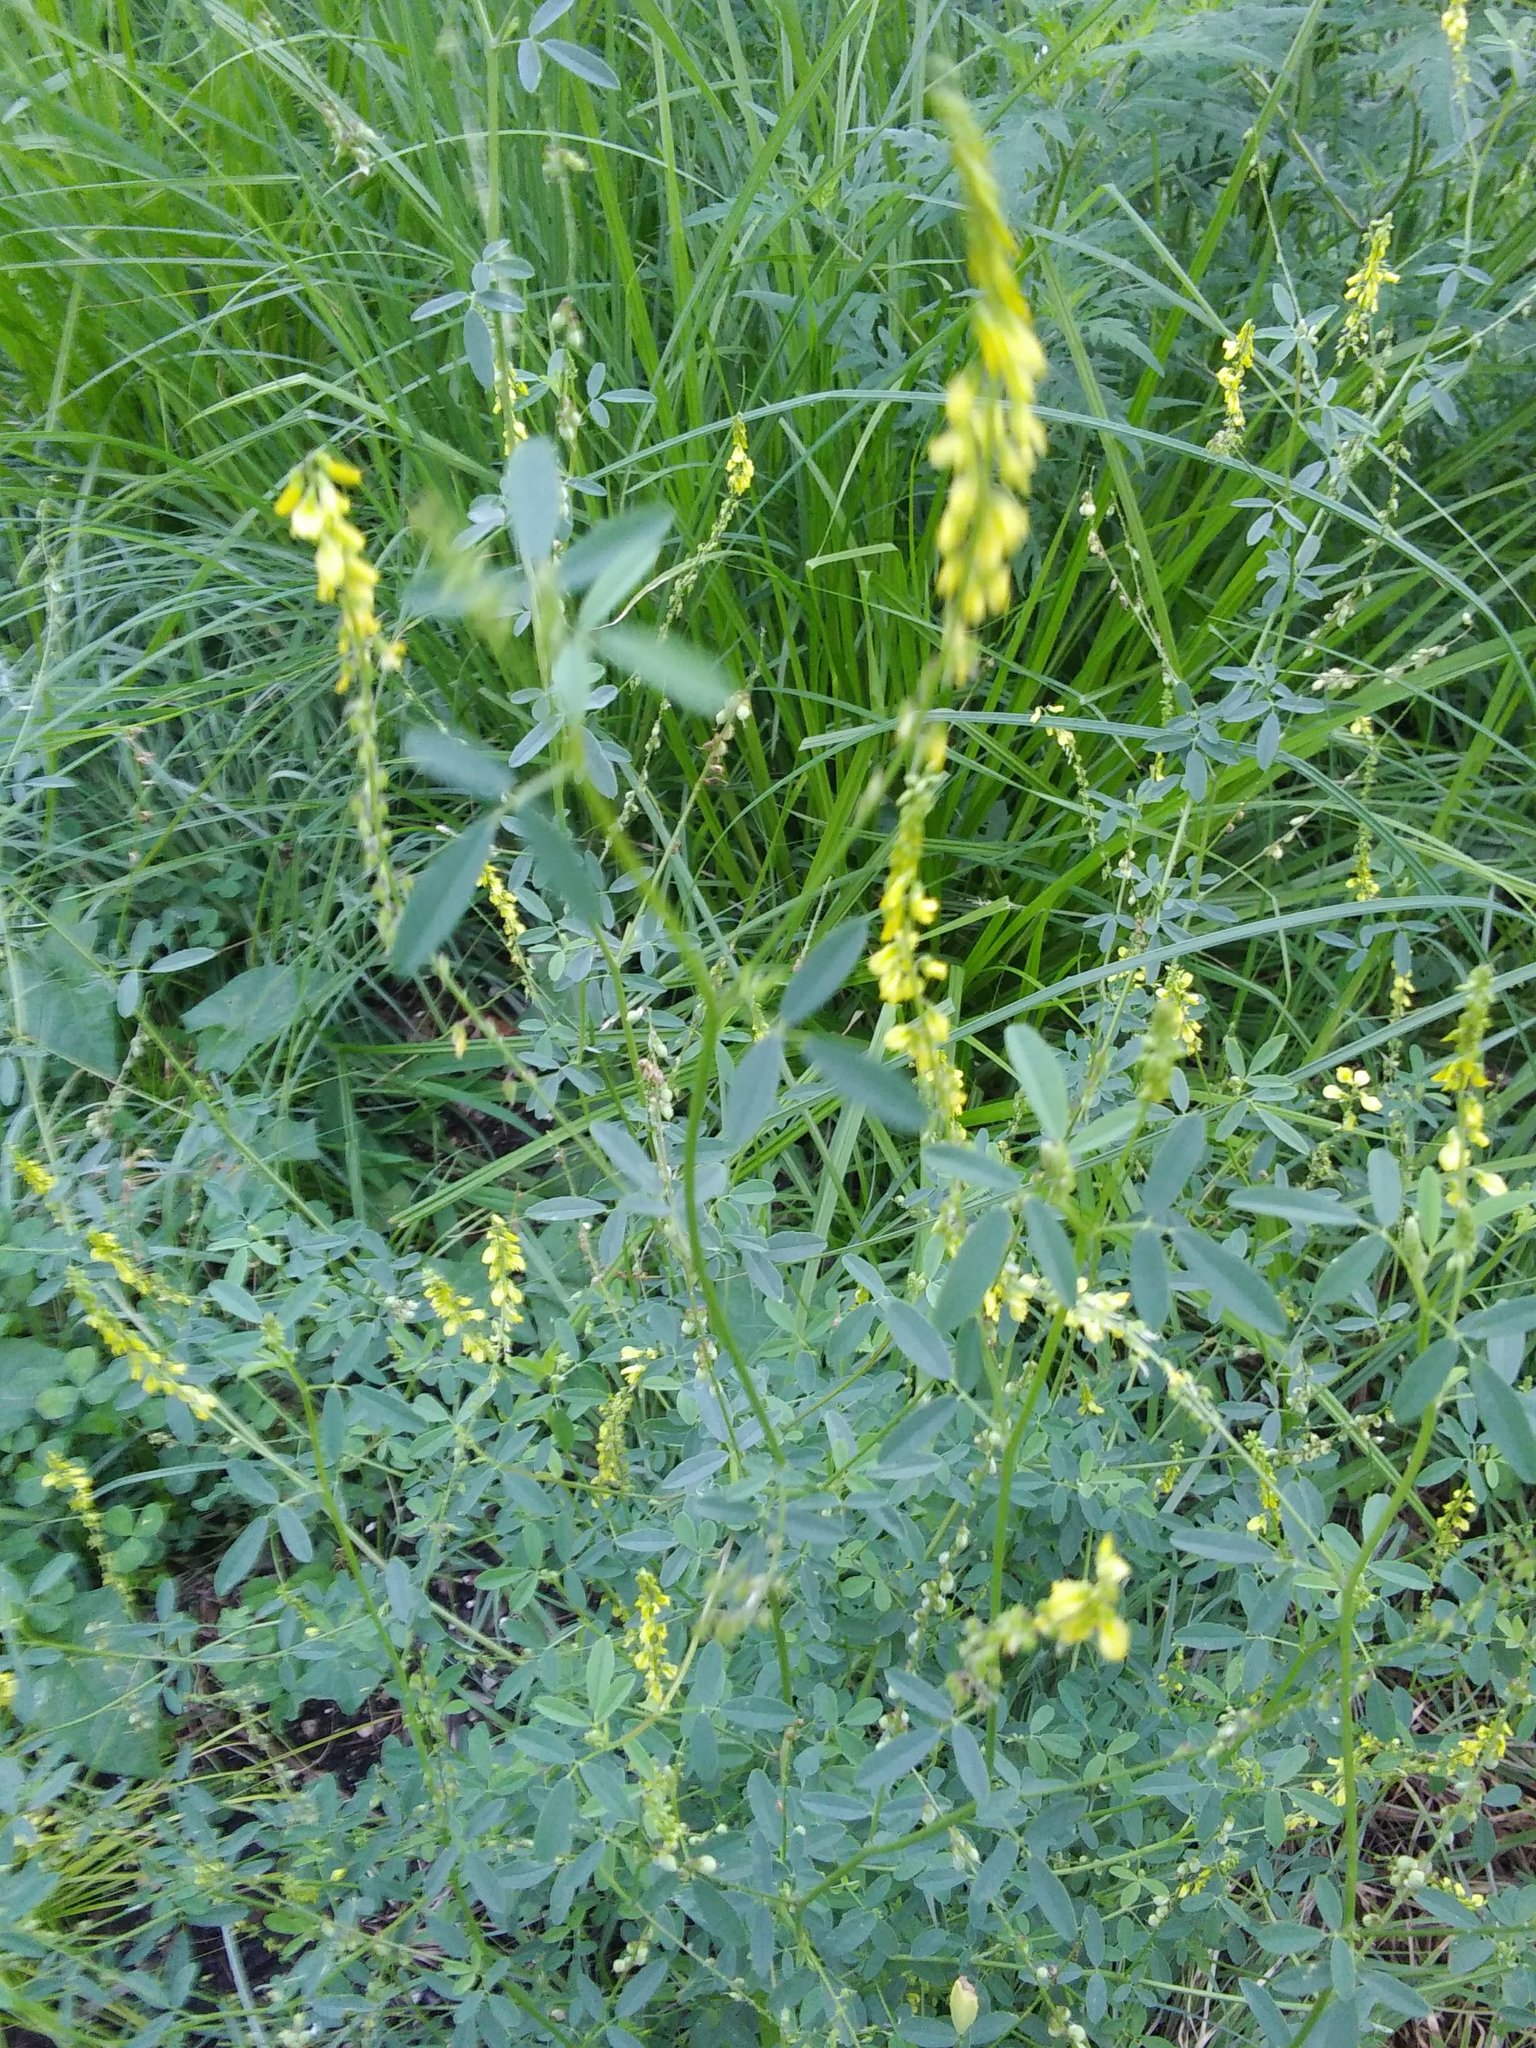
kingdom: Plantae
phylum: Tracheophyta
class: Magnoliopsida
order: Fabales
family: Fabaceae
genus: Melilotus
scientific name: Melilotus officinalis
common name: Sweetclover
